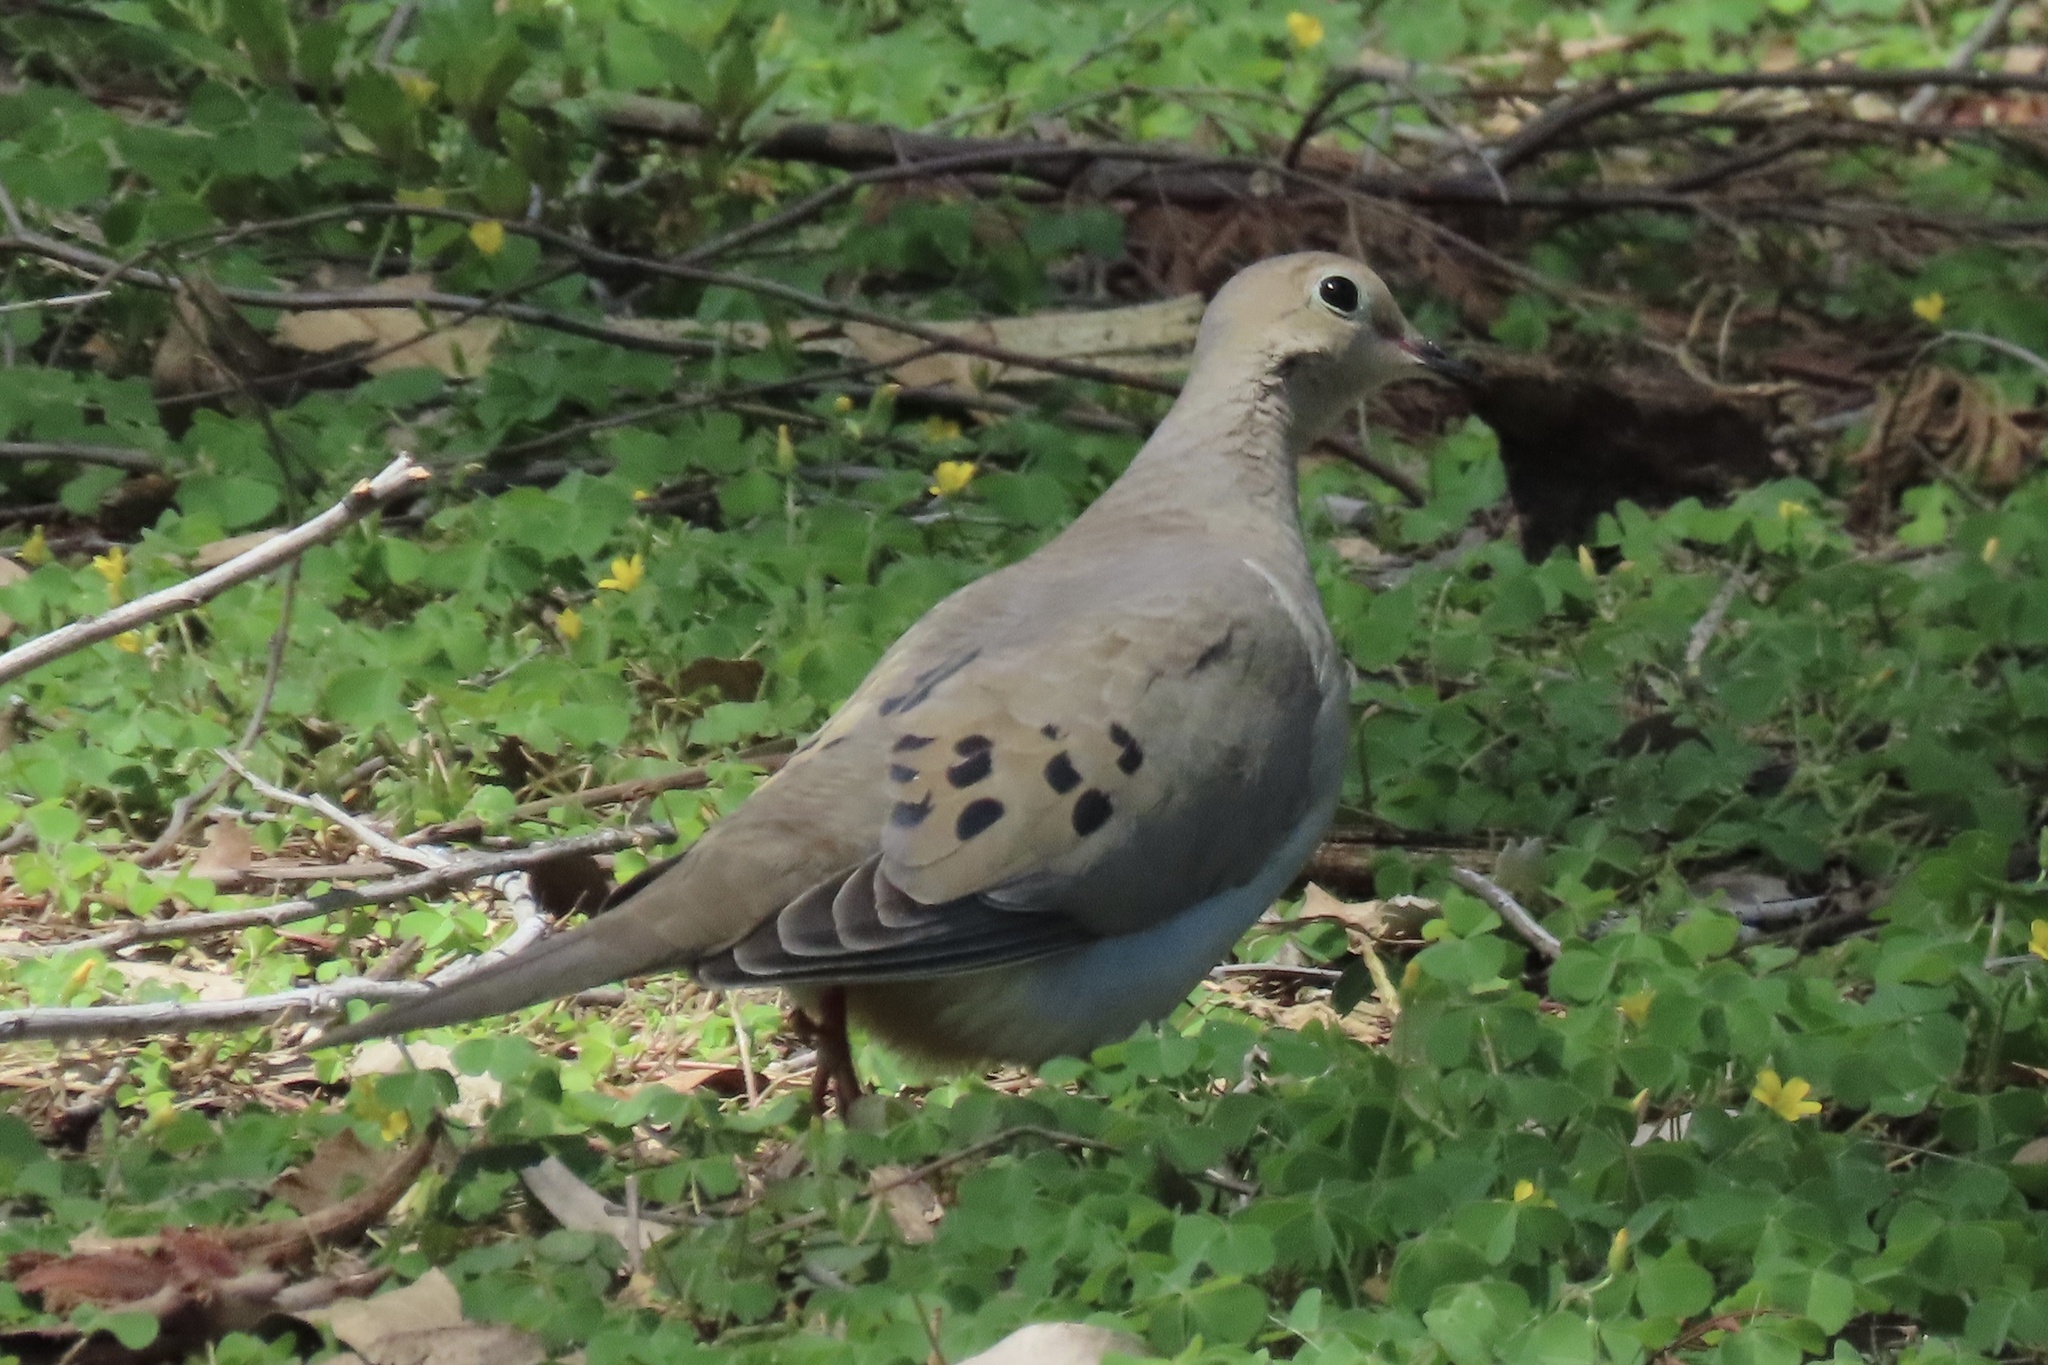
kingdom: Animalia
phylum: Chordata
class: Aves
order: Columbiformes
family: Columbidae
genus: Zenaida
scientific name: Zenaida macroura
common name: Mourning dove
